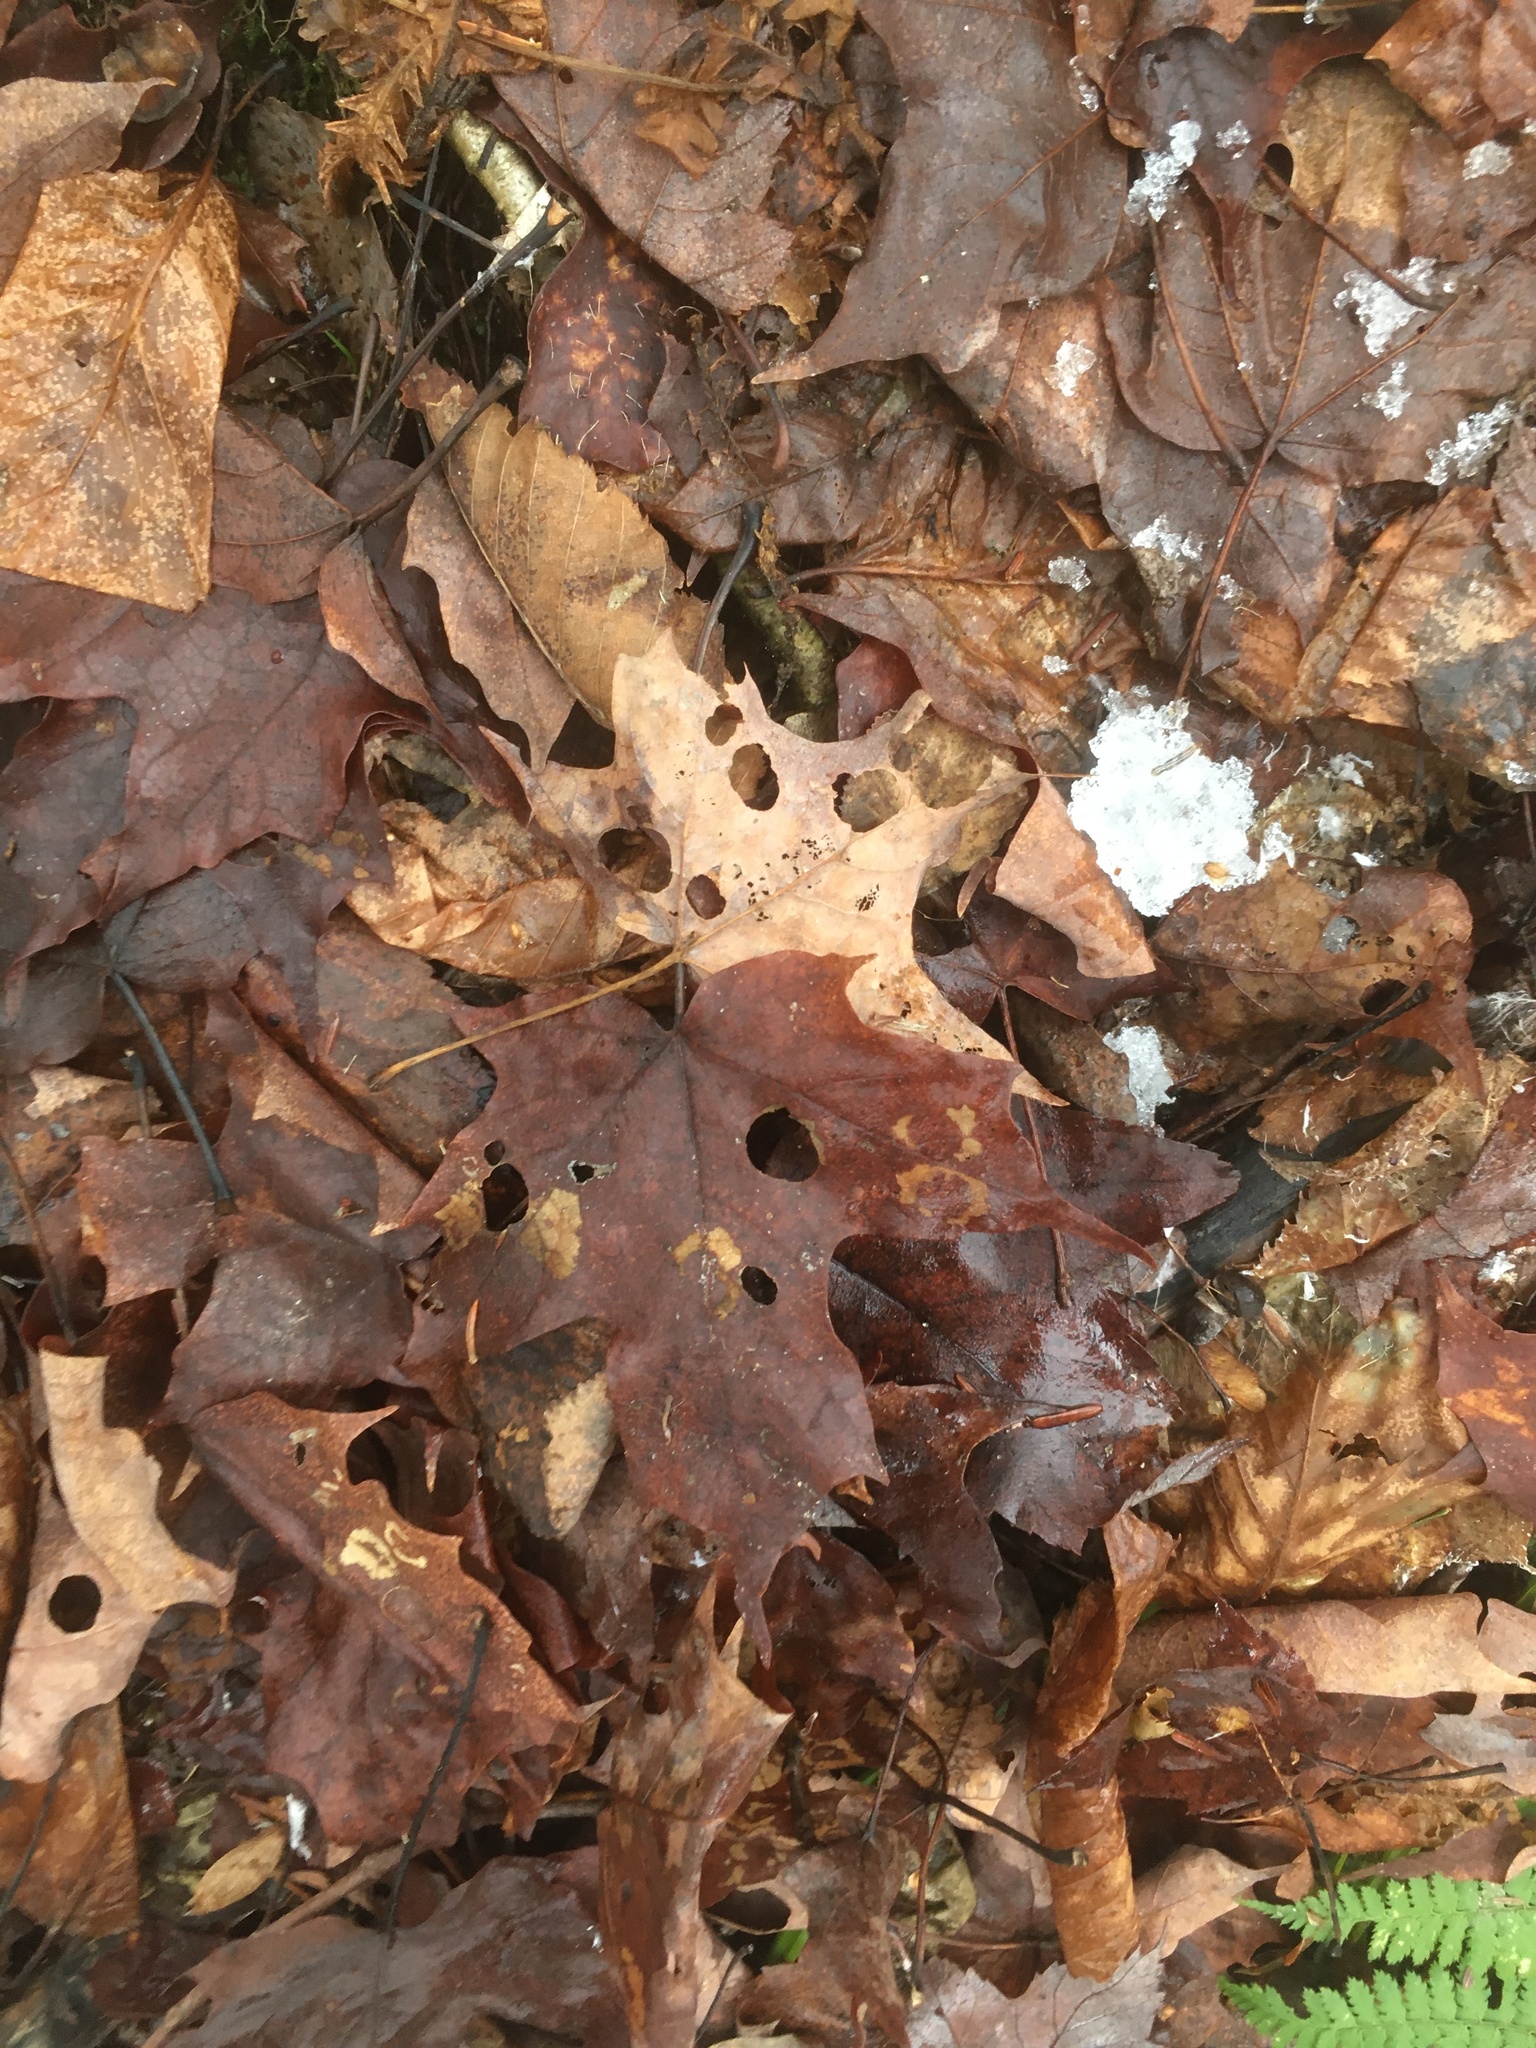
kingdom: Plantae
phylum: Tracheophyta
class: Magnoliopsida
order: Sapindales
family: Sapindaceae
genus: Acer
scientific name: Acer saccharum
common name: Sugar maple
